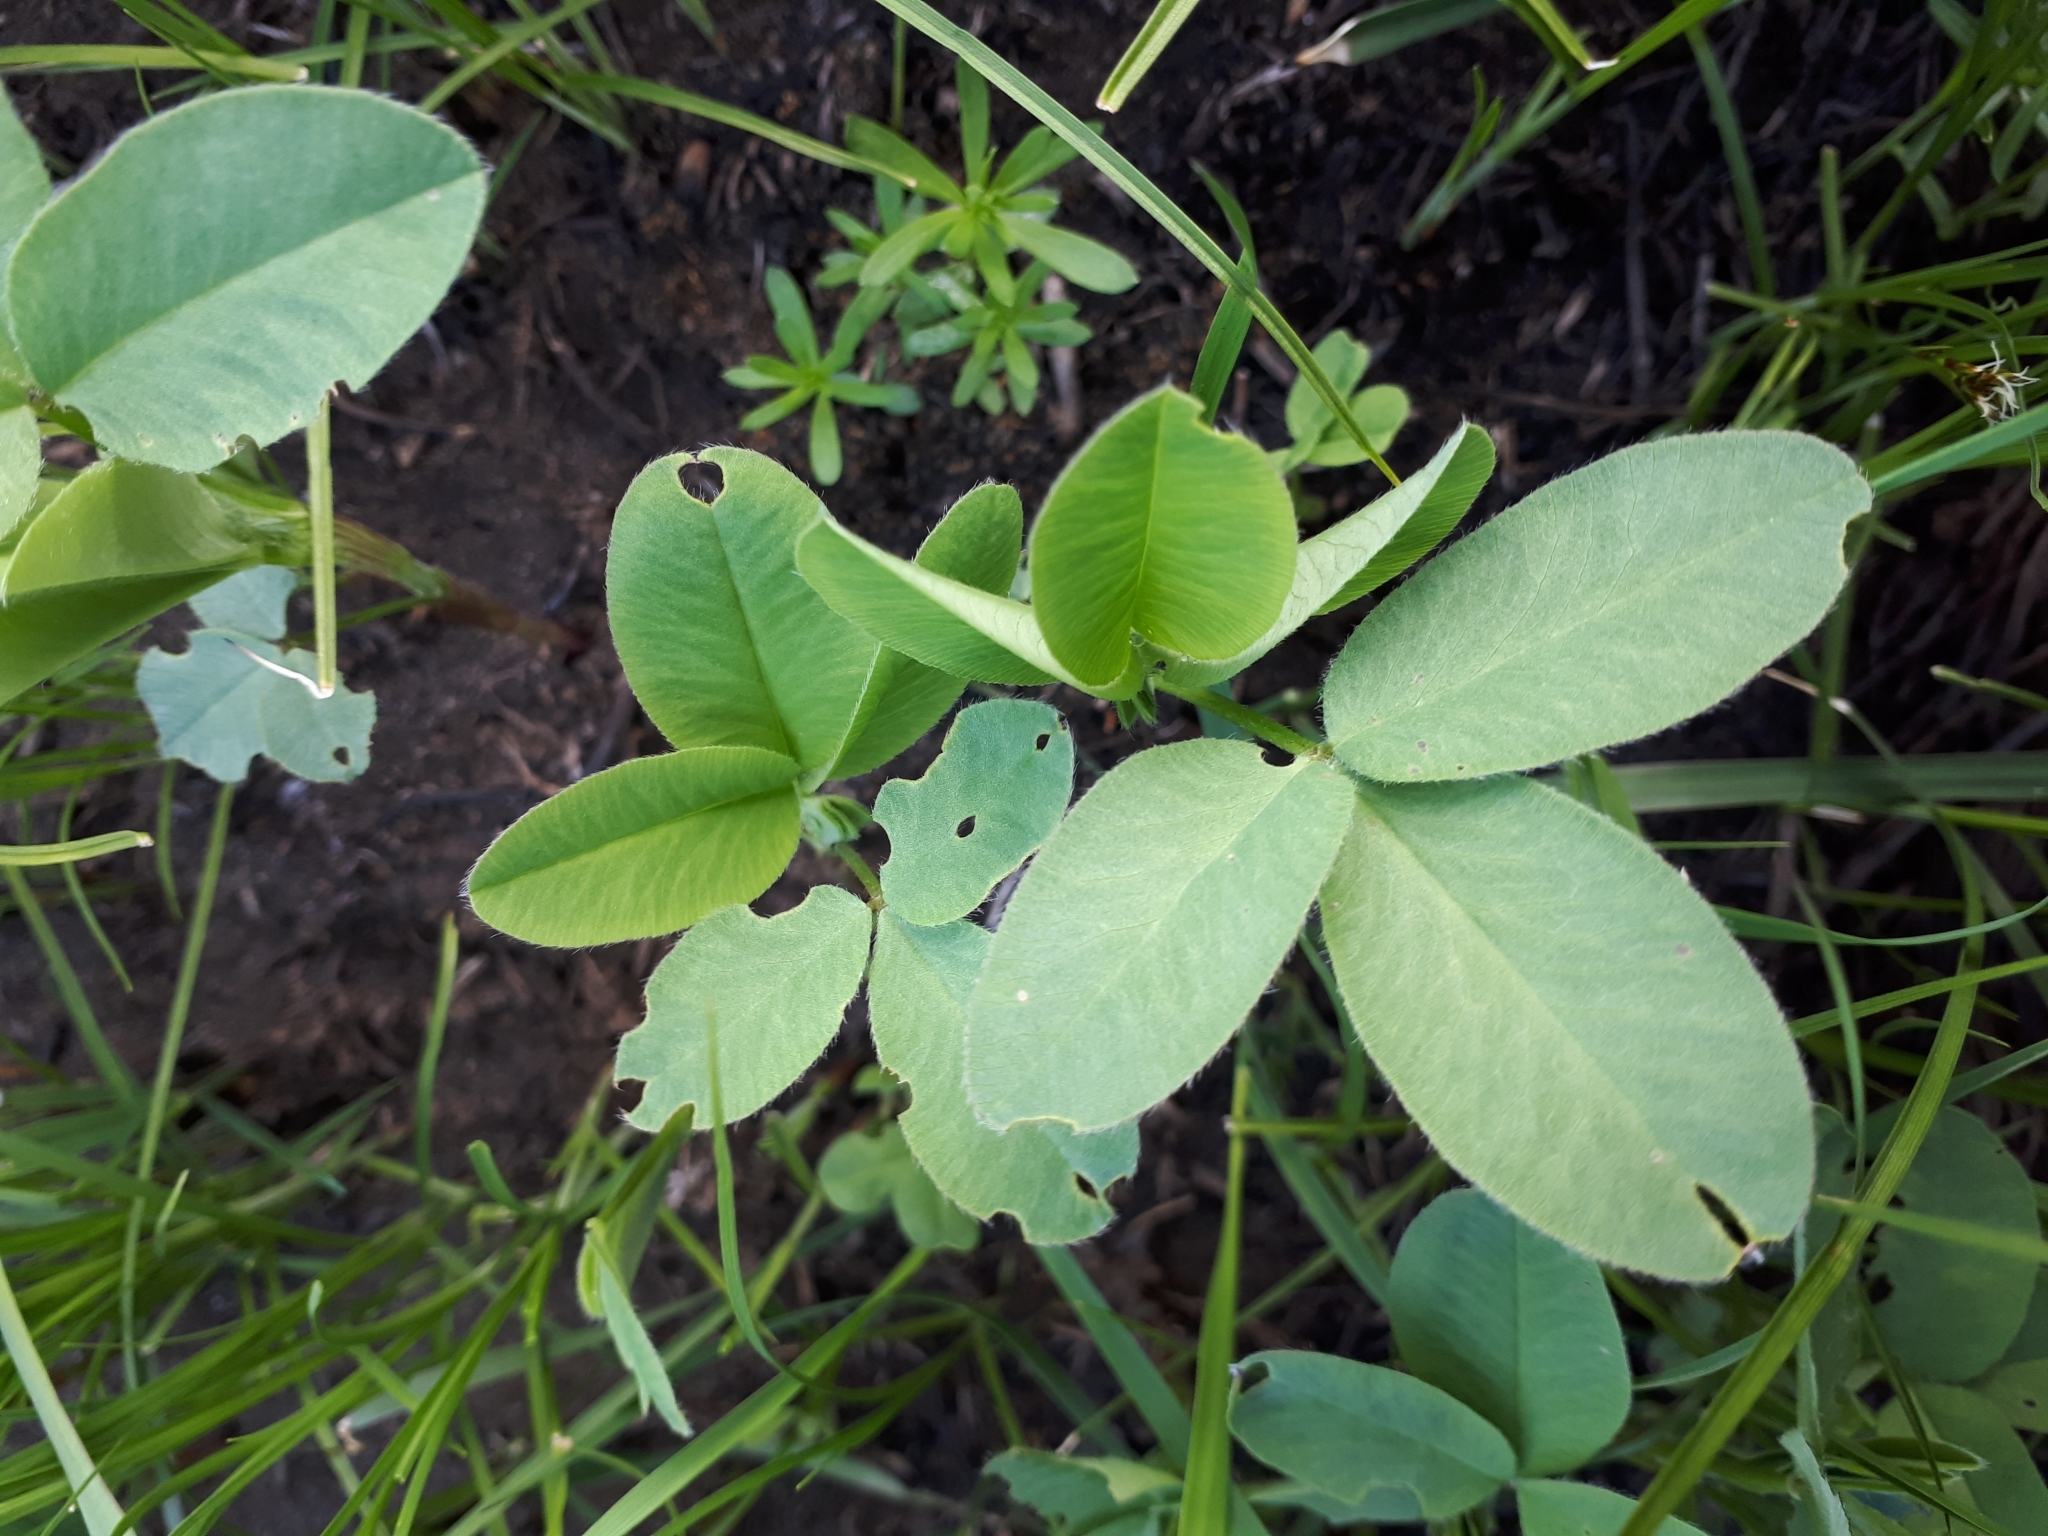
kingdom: Plantae
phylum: Tracheophyta
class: Magnoliopsida
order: Fabales
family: Fabaceae
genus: Trifolium
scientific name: Trifolium medium
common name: Zigzag clover
